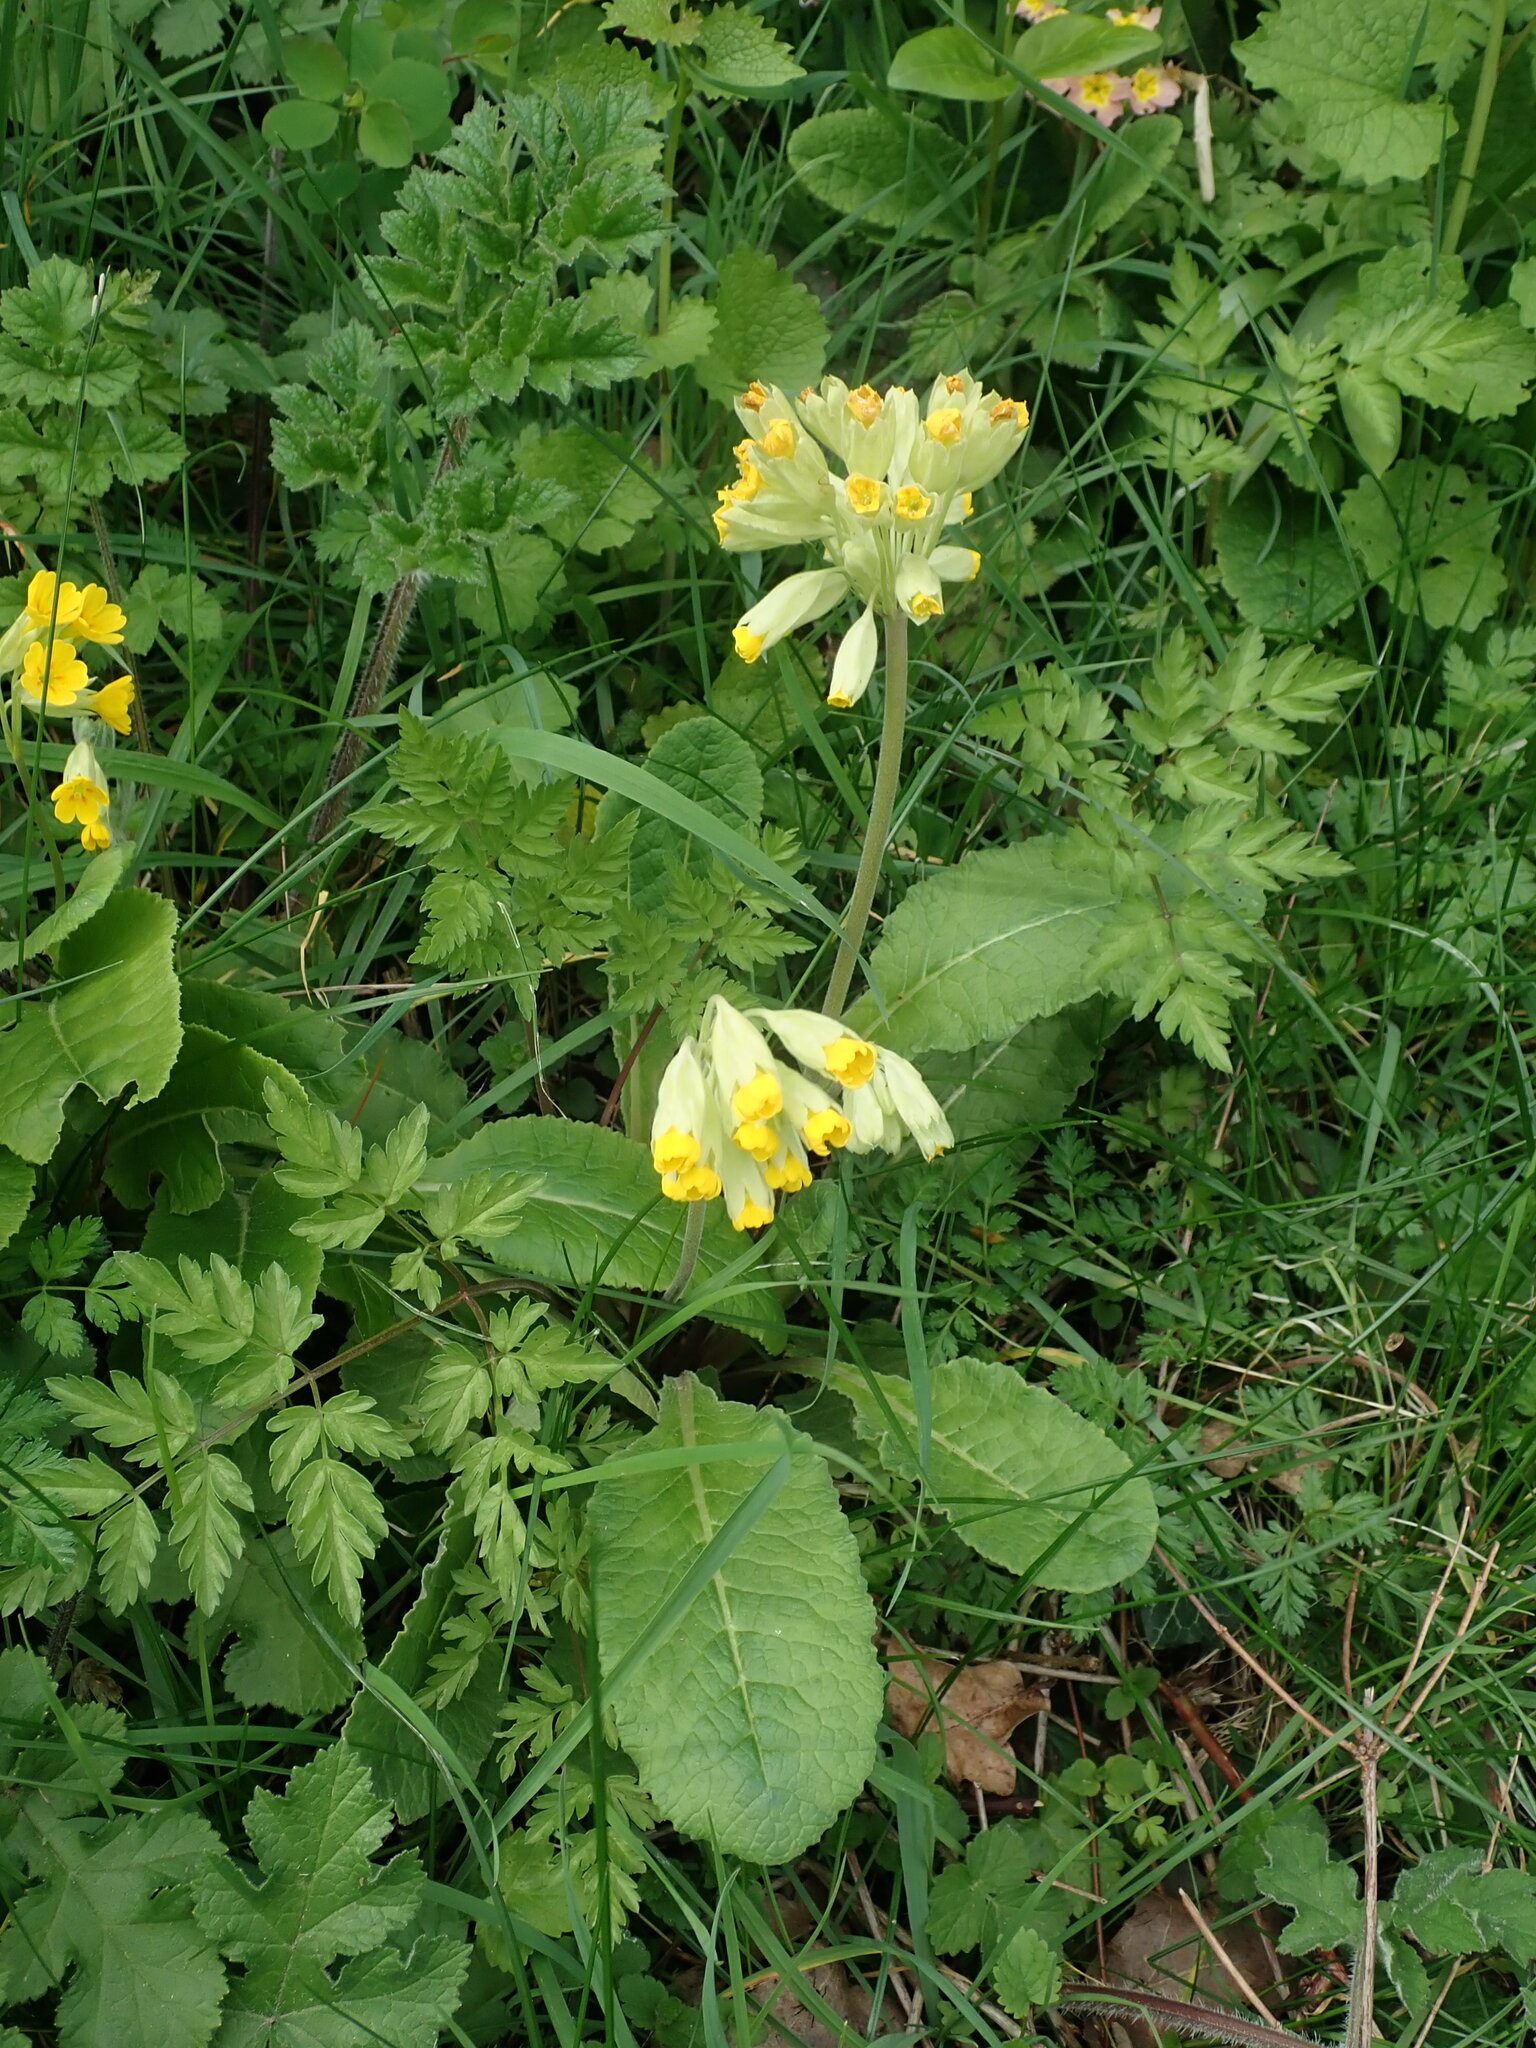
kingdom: Plantae
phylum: Tracheophyta
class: Magnoliopsida
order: Ericales
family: Primulaceae
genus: Primula
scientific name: Primula veris
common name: Cowslip
